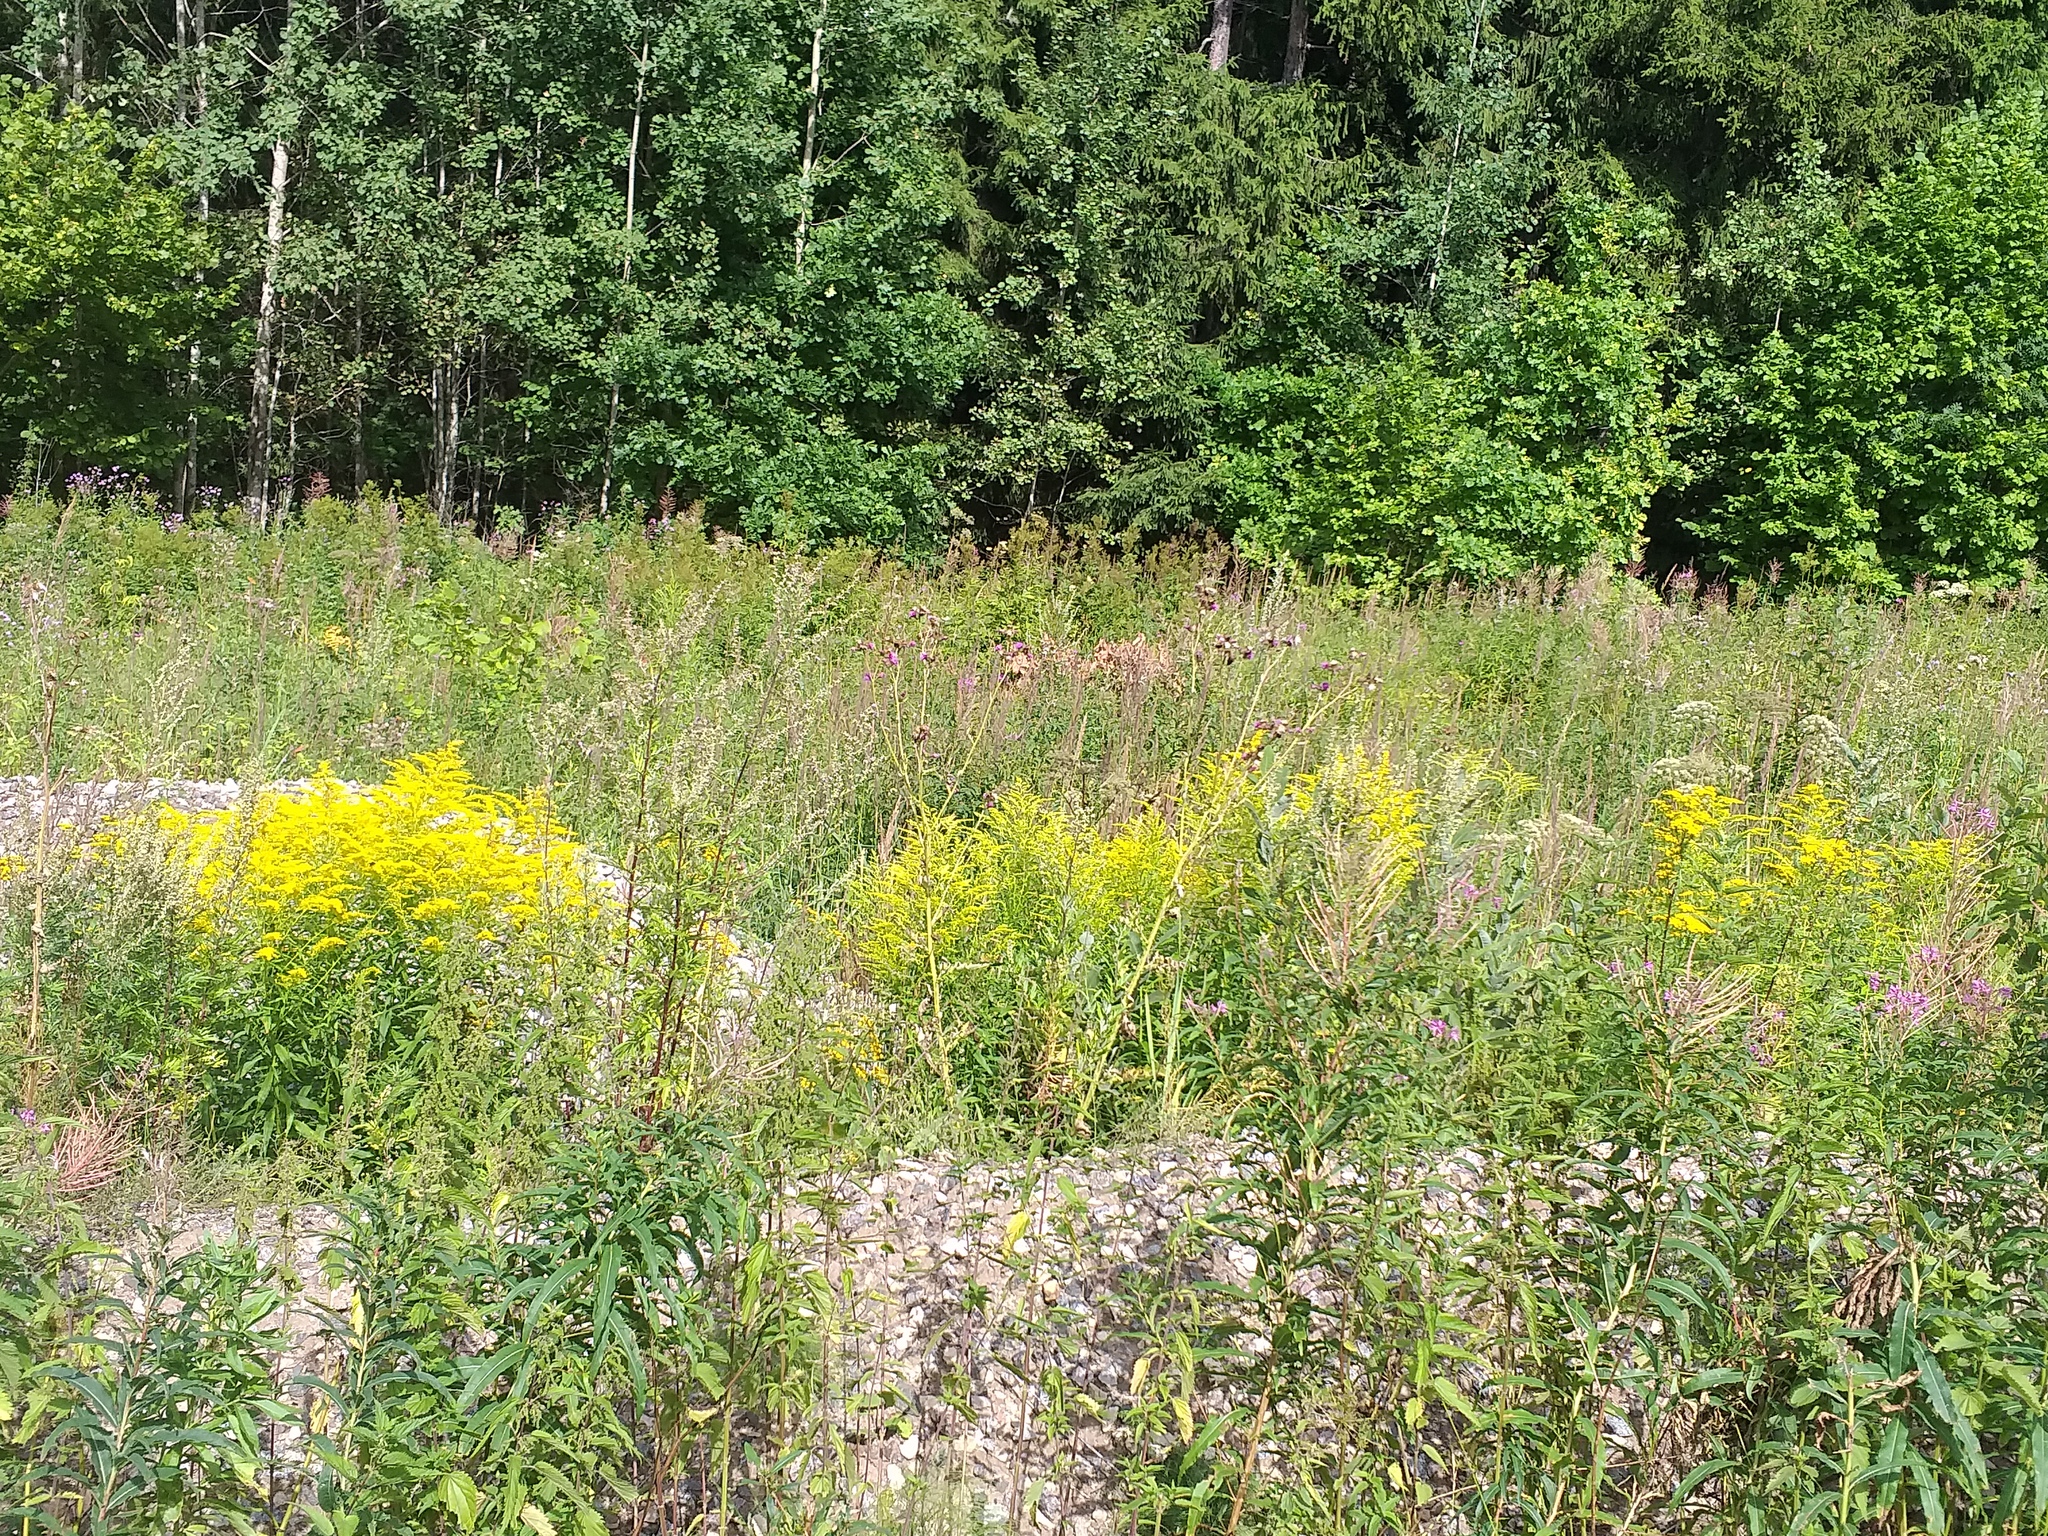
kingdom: Plantae
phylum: Tracheophyta
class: Magnoliopsida
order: Asterales
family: Asteraceae
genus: Solidago
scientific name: Solidago canadensis
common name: Canada goldenrod
